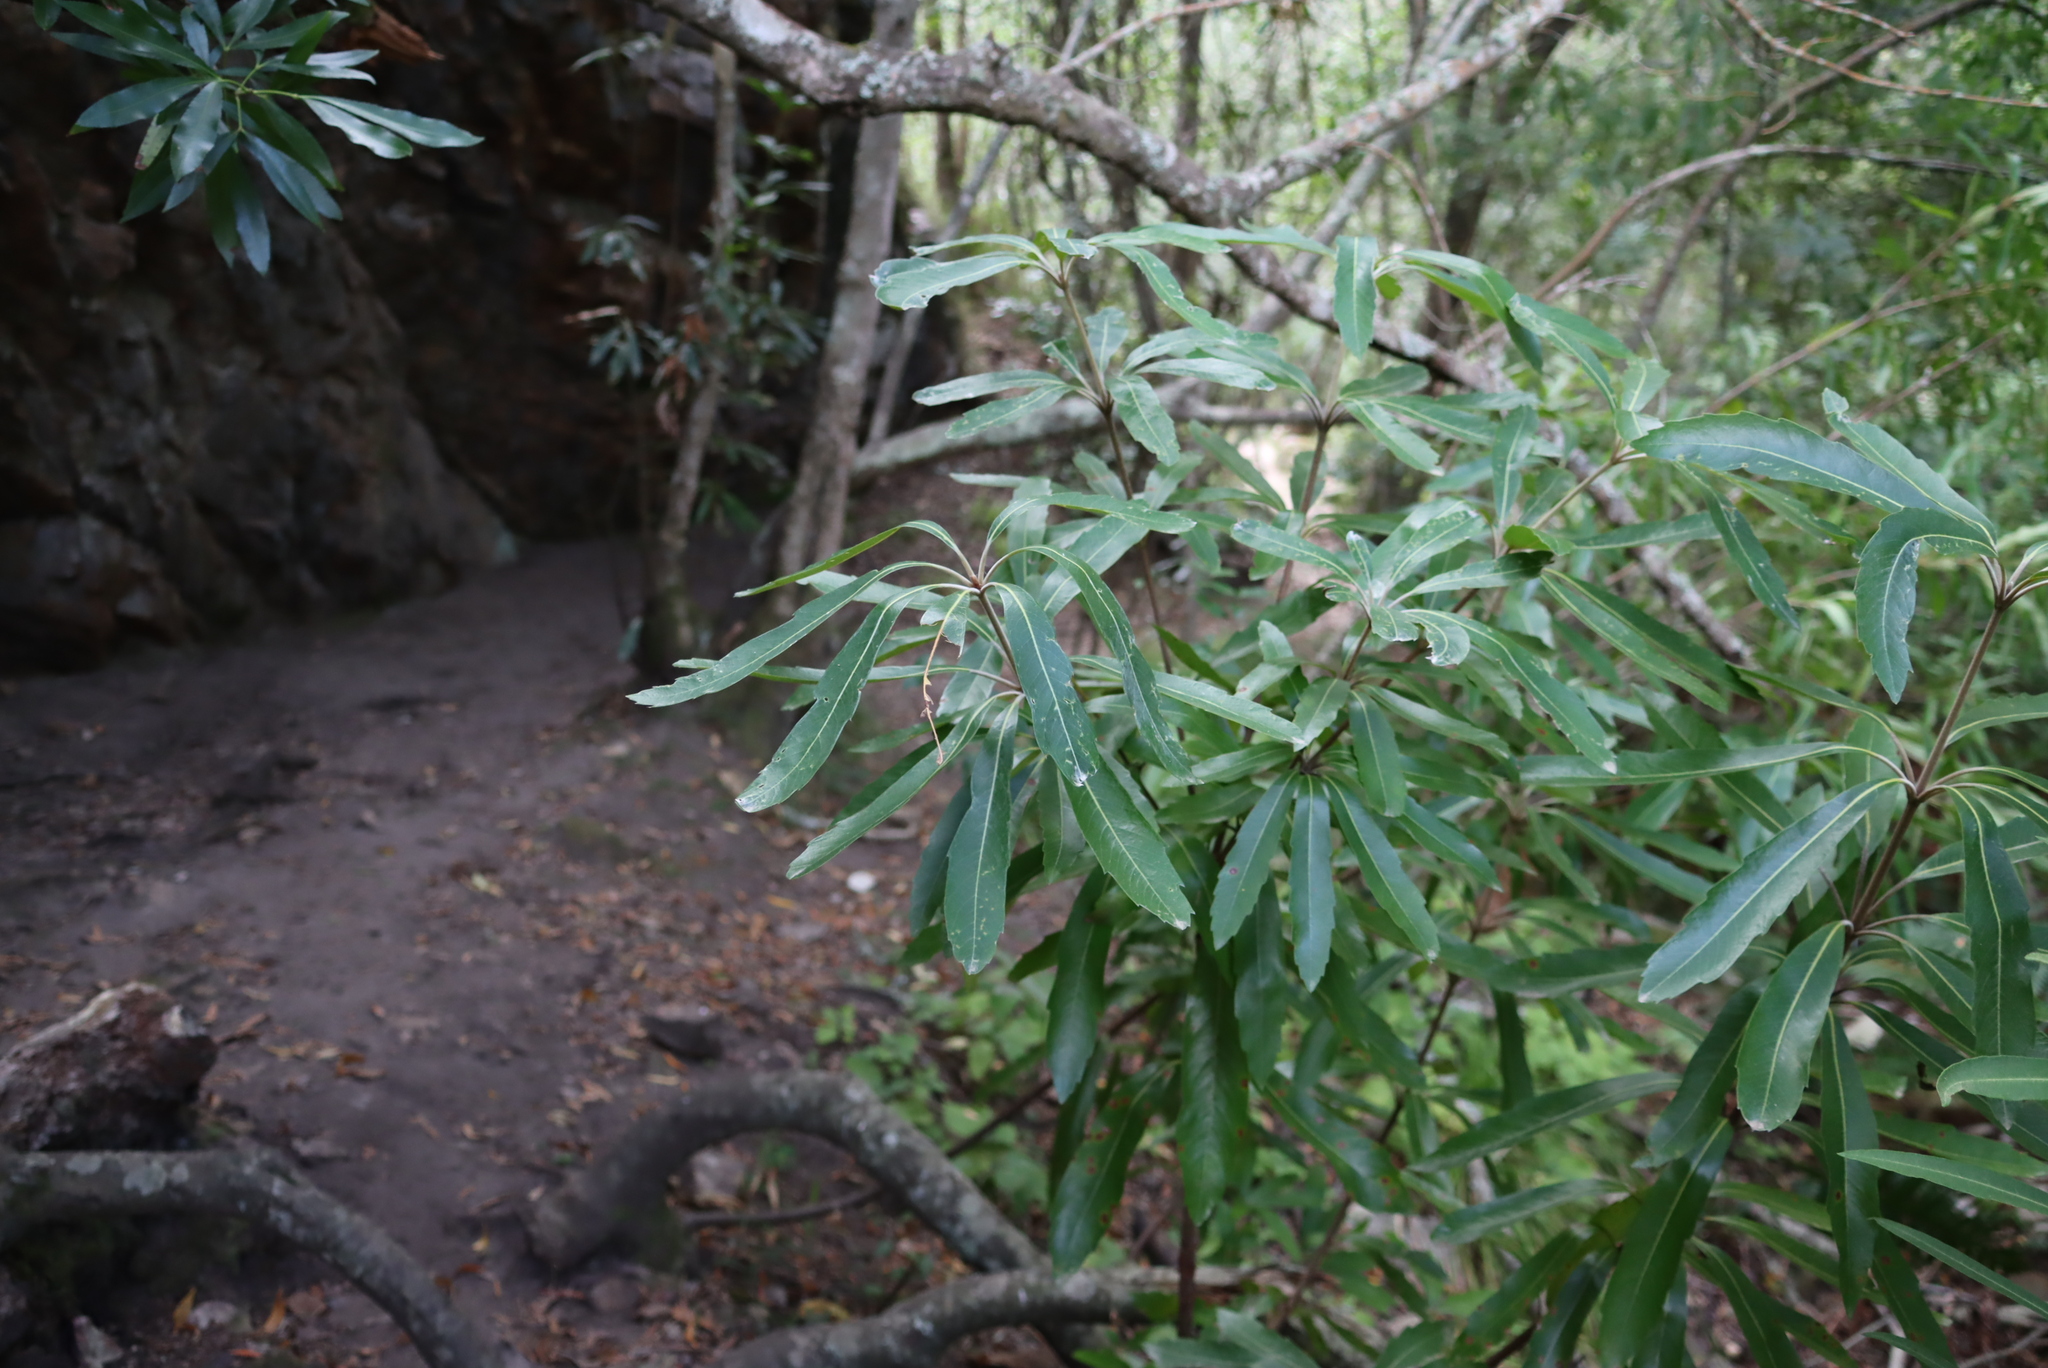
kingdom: Plantae
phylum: Tracheophyta
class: Magnoliopsida
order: Proteales
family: Proteaceae
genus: Brabejum
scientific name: Brabejum stellatifolium
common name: Wild almond
